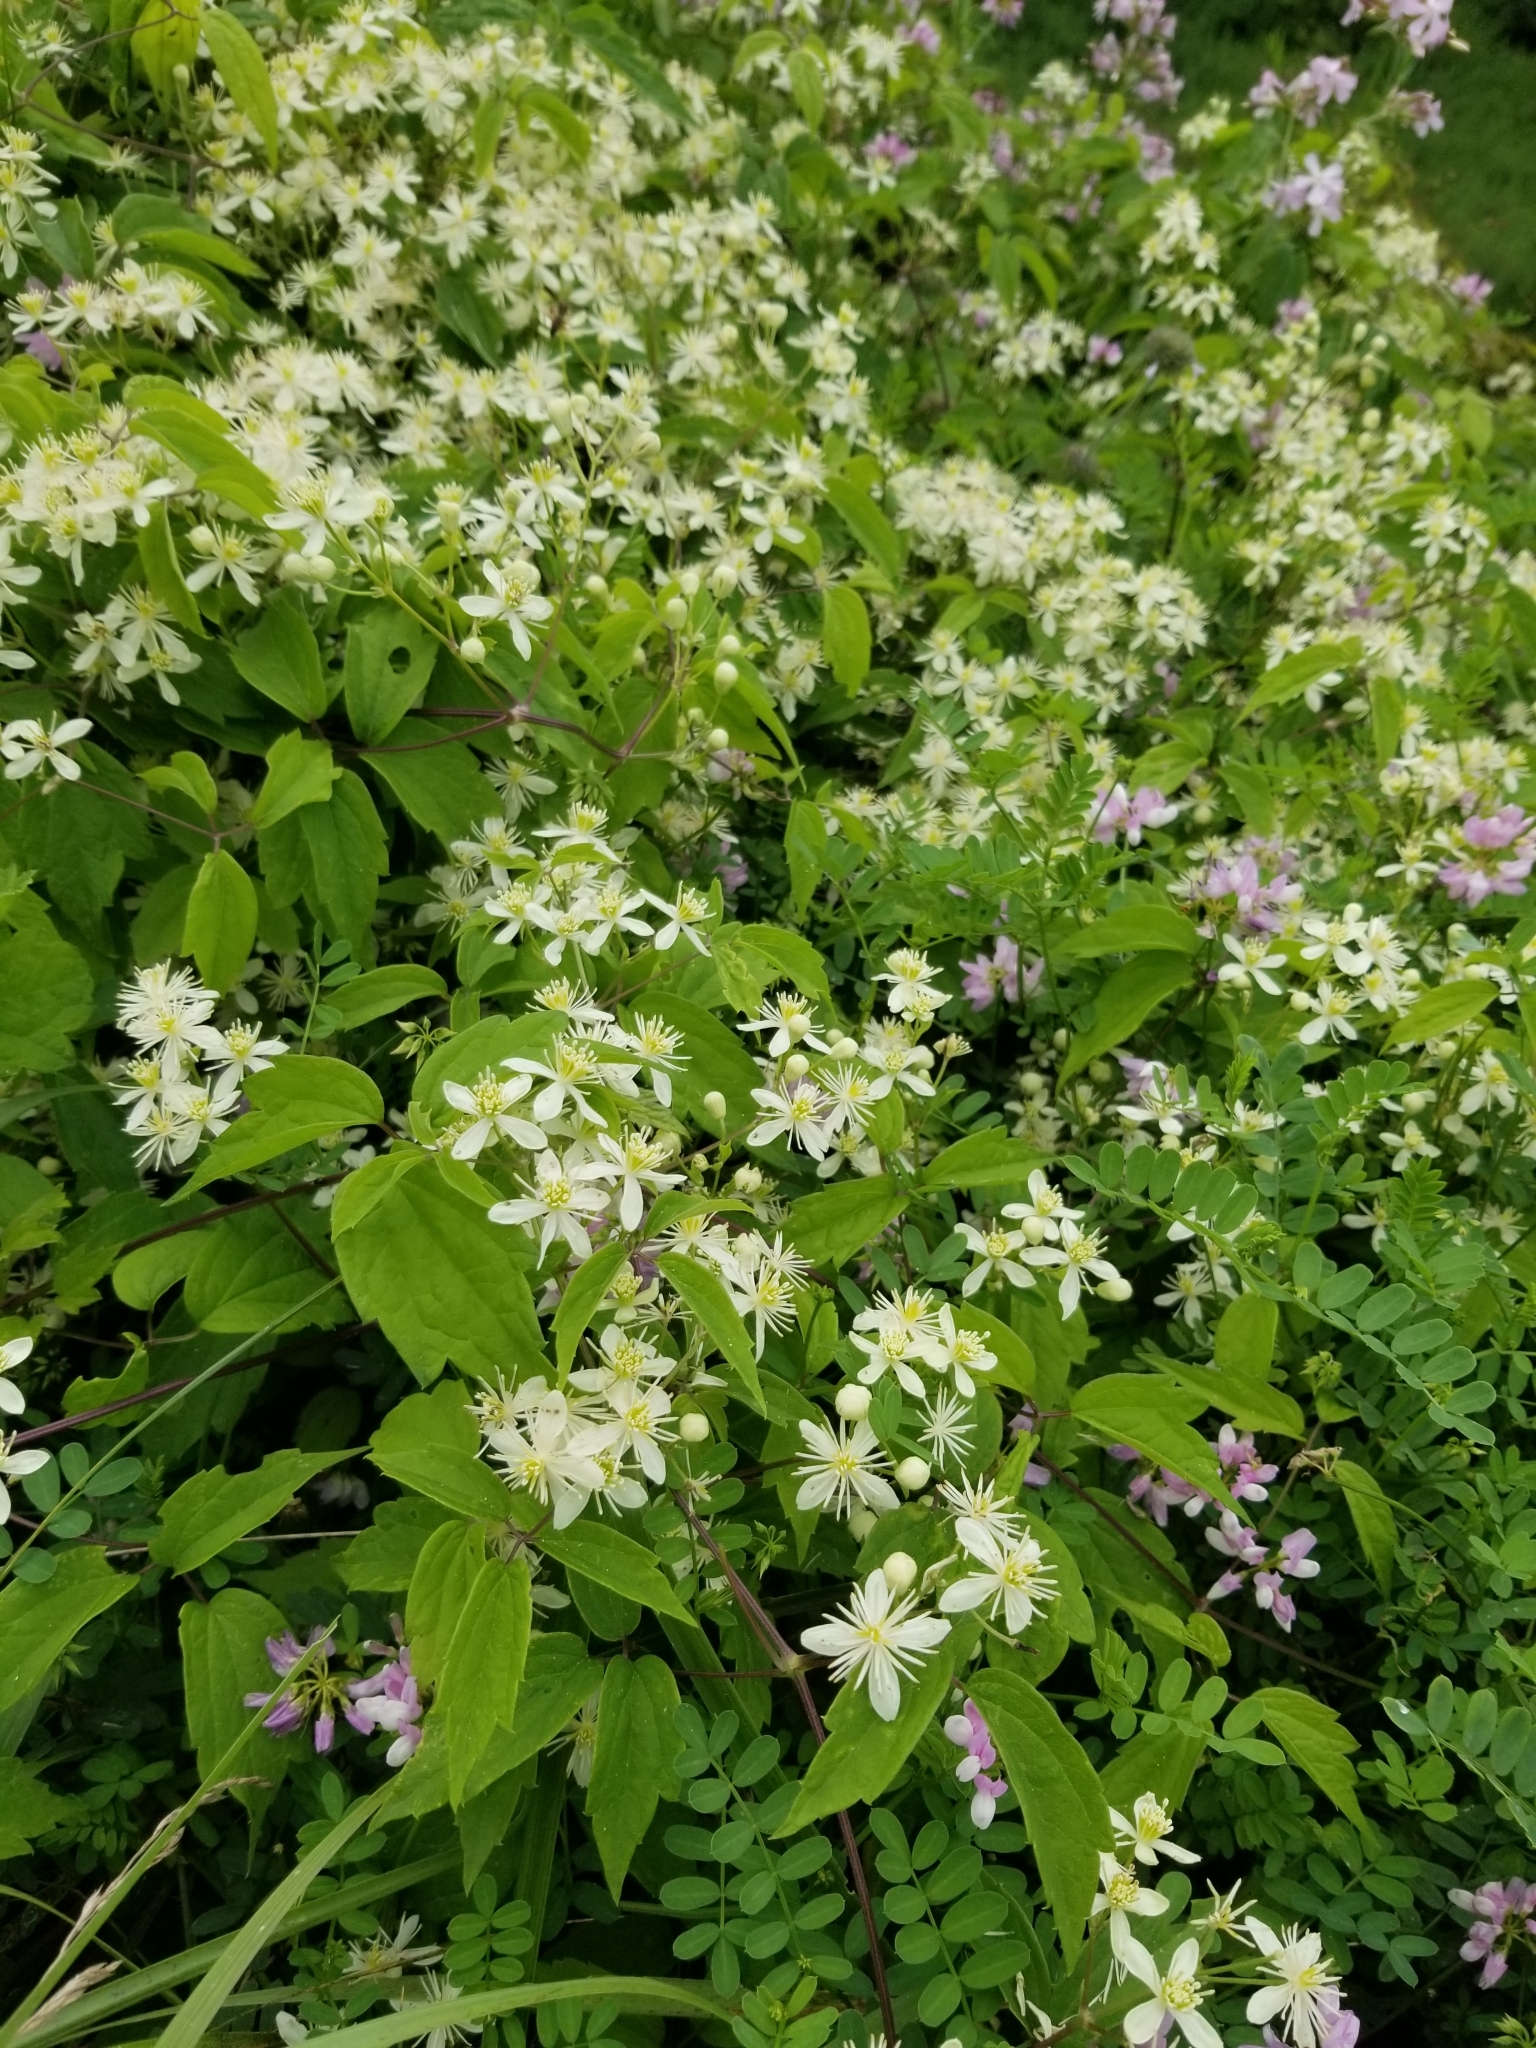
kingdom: Plantae
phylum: Tracheophyta
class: Magnoliopsida
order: Ranunculales
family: Ranunculaceae
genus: Clematis
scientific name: Clematis virginiana
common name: Virgin's-bower
